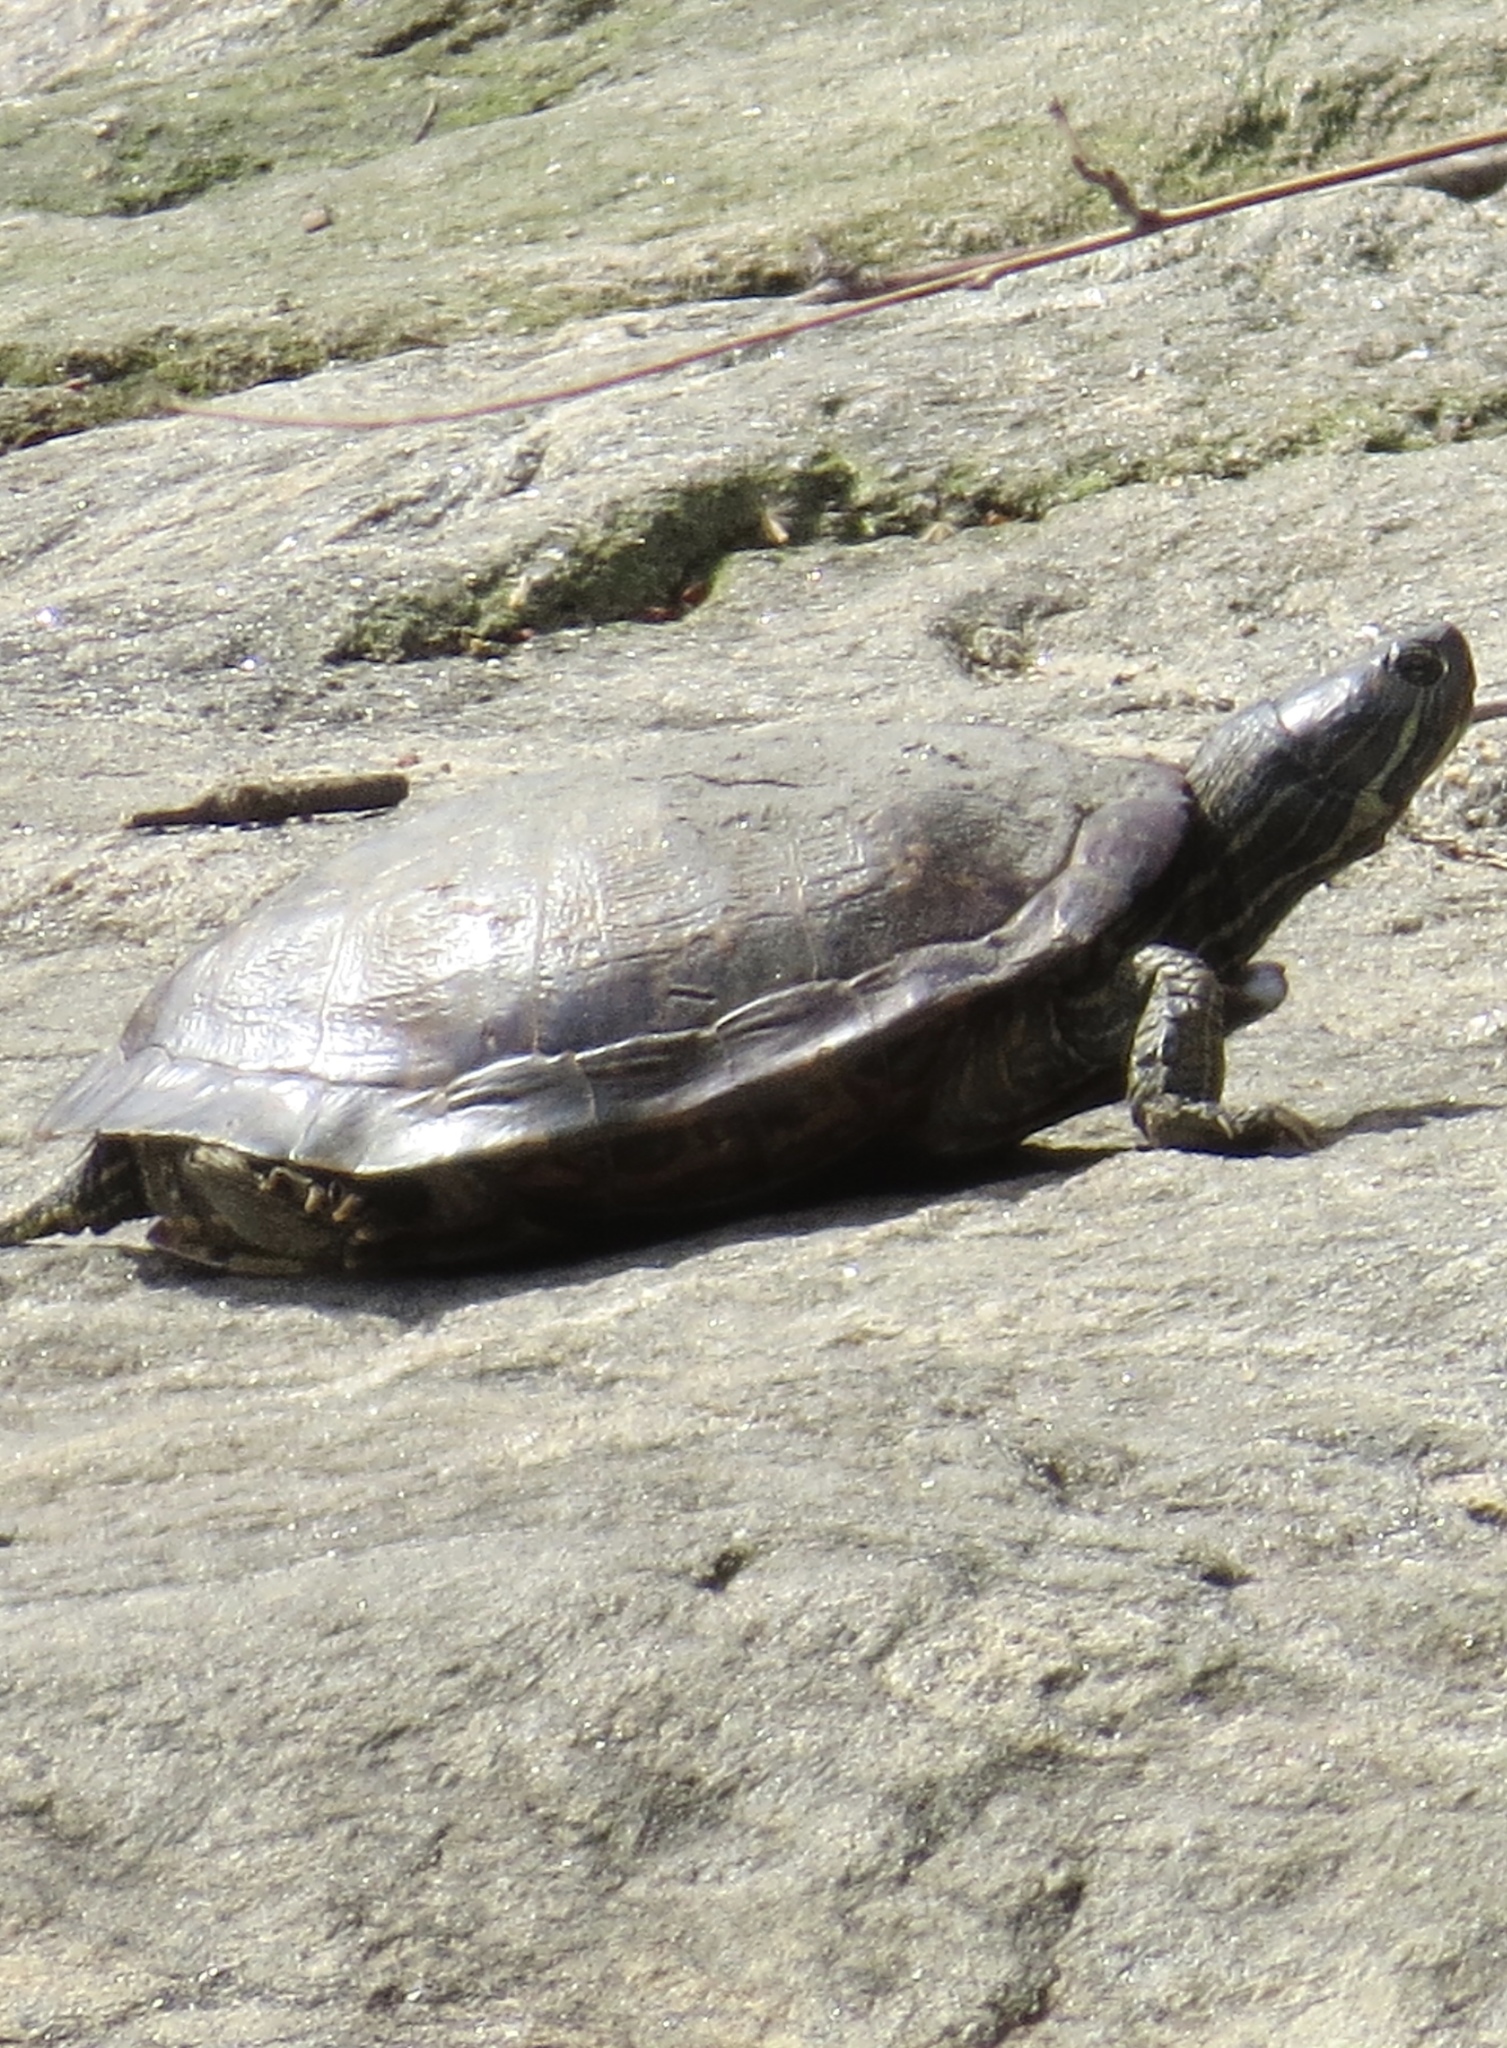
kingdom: Animalia
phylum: Chordata
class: Testudines
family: Emydidae
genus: Trachemys
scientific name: Trachemys scripta
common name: Slider
